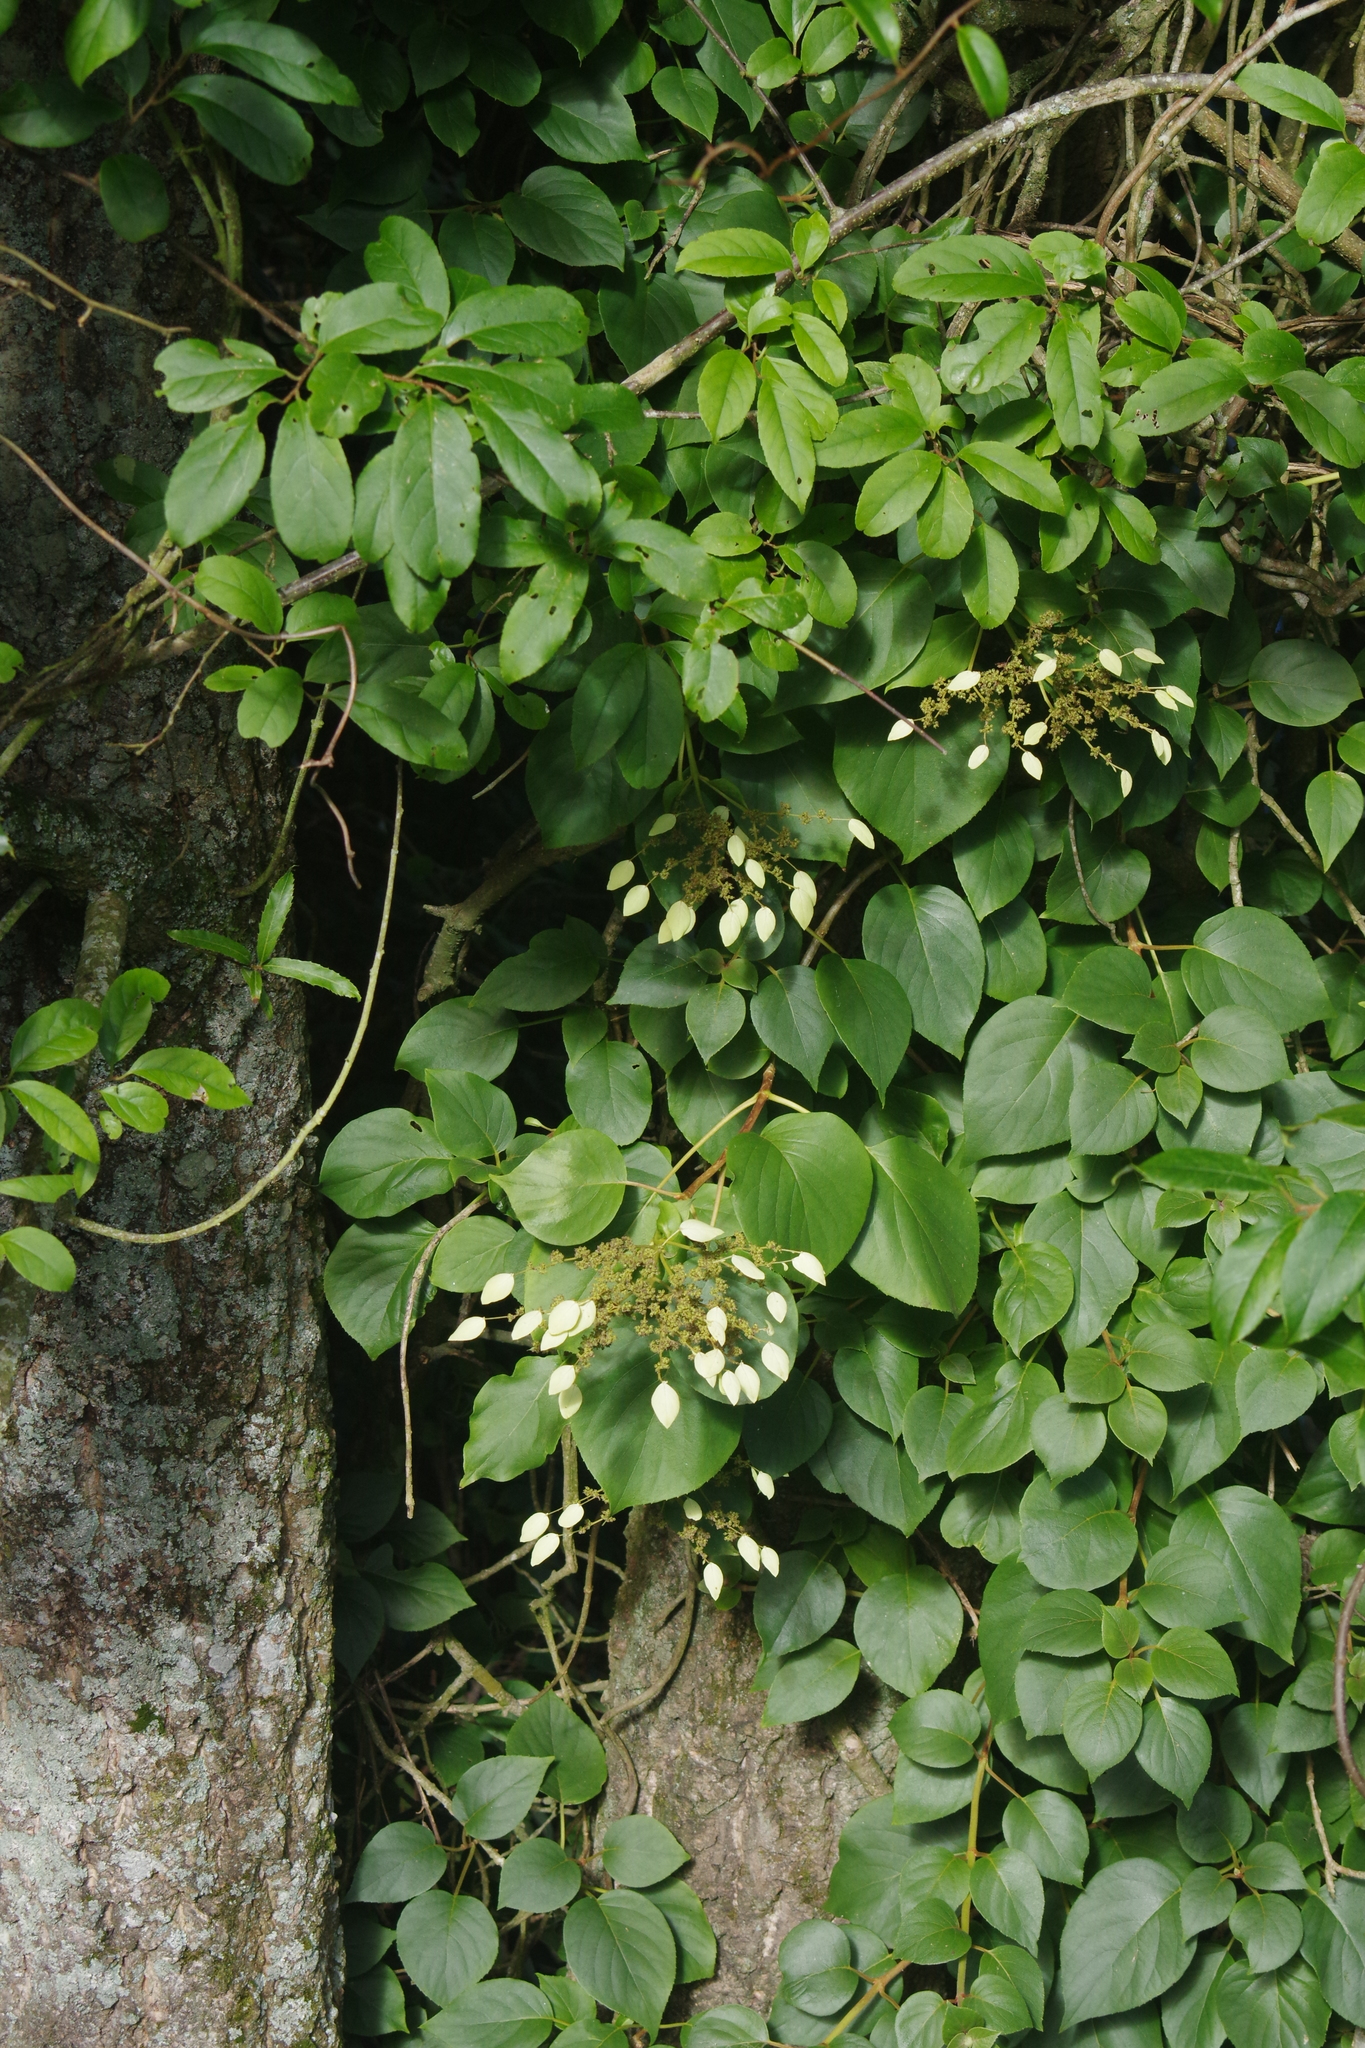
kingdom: Plantae
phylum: Tracheophyta
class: Magnoliopsida
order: Cornales
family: Hydrangeaceae
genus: Hydrangea
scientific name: Hydrangea fauriei
